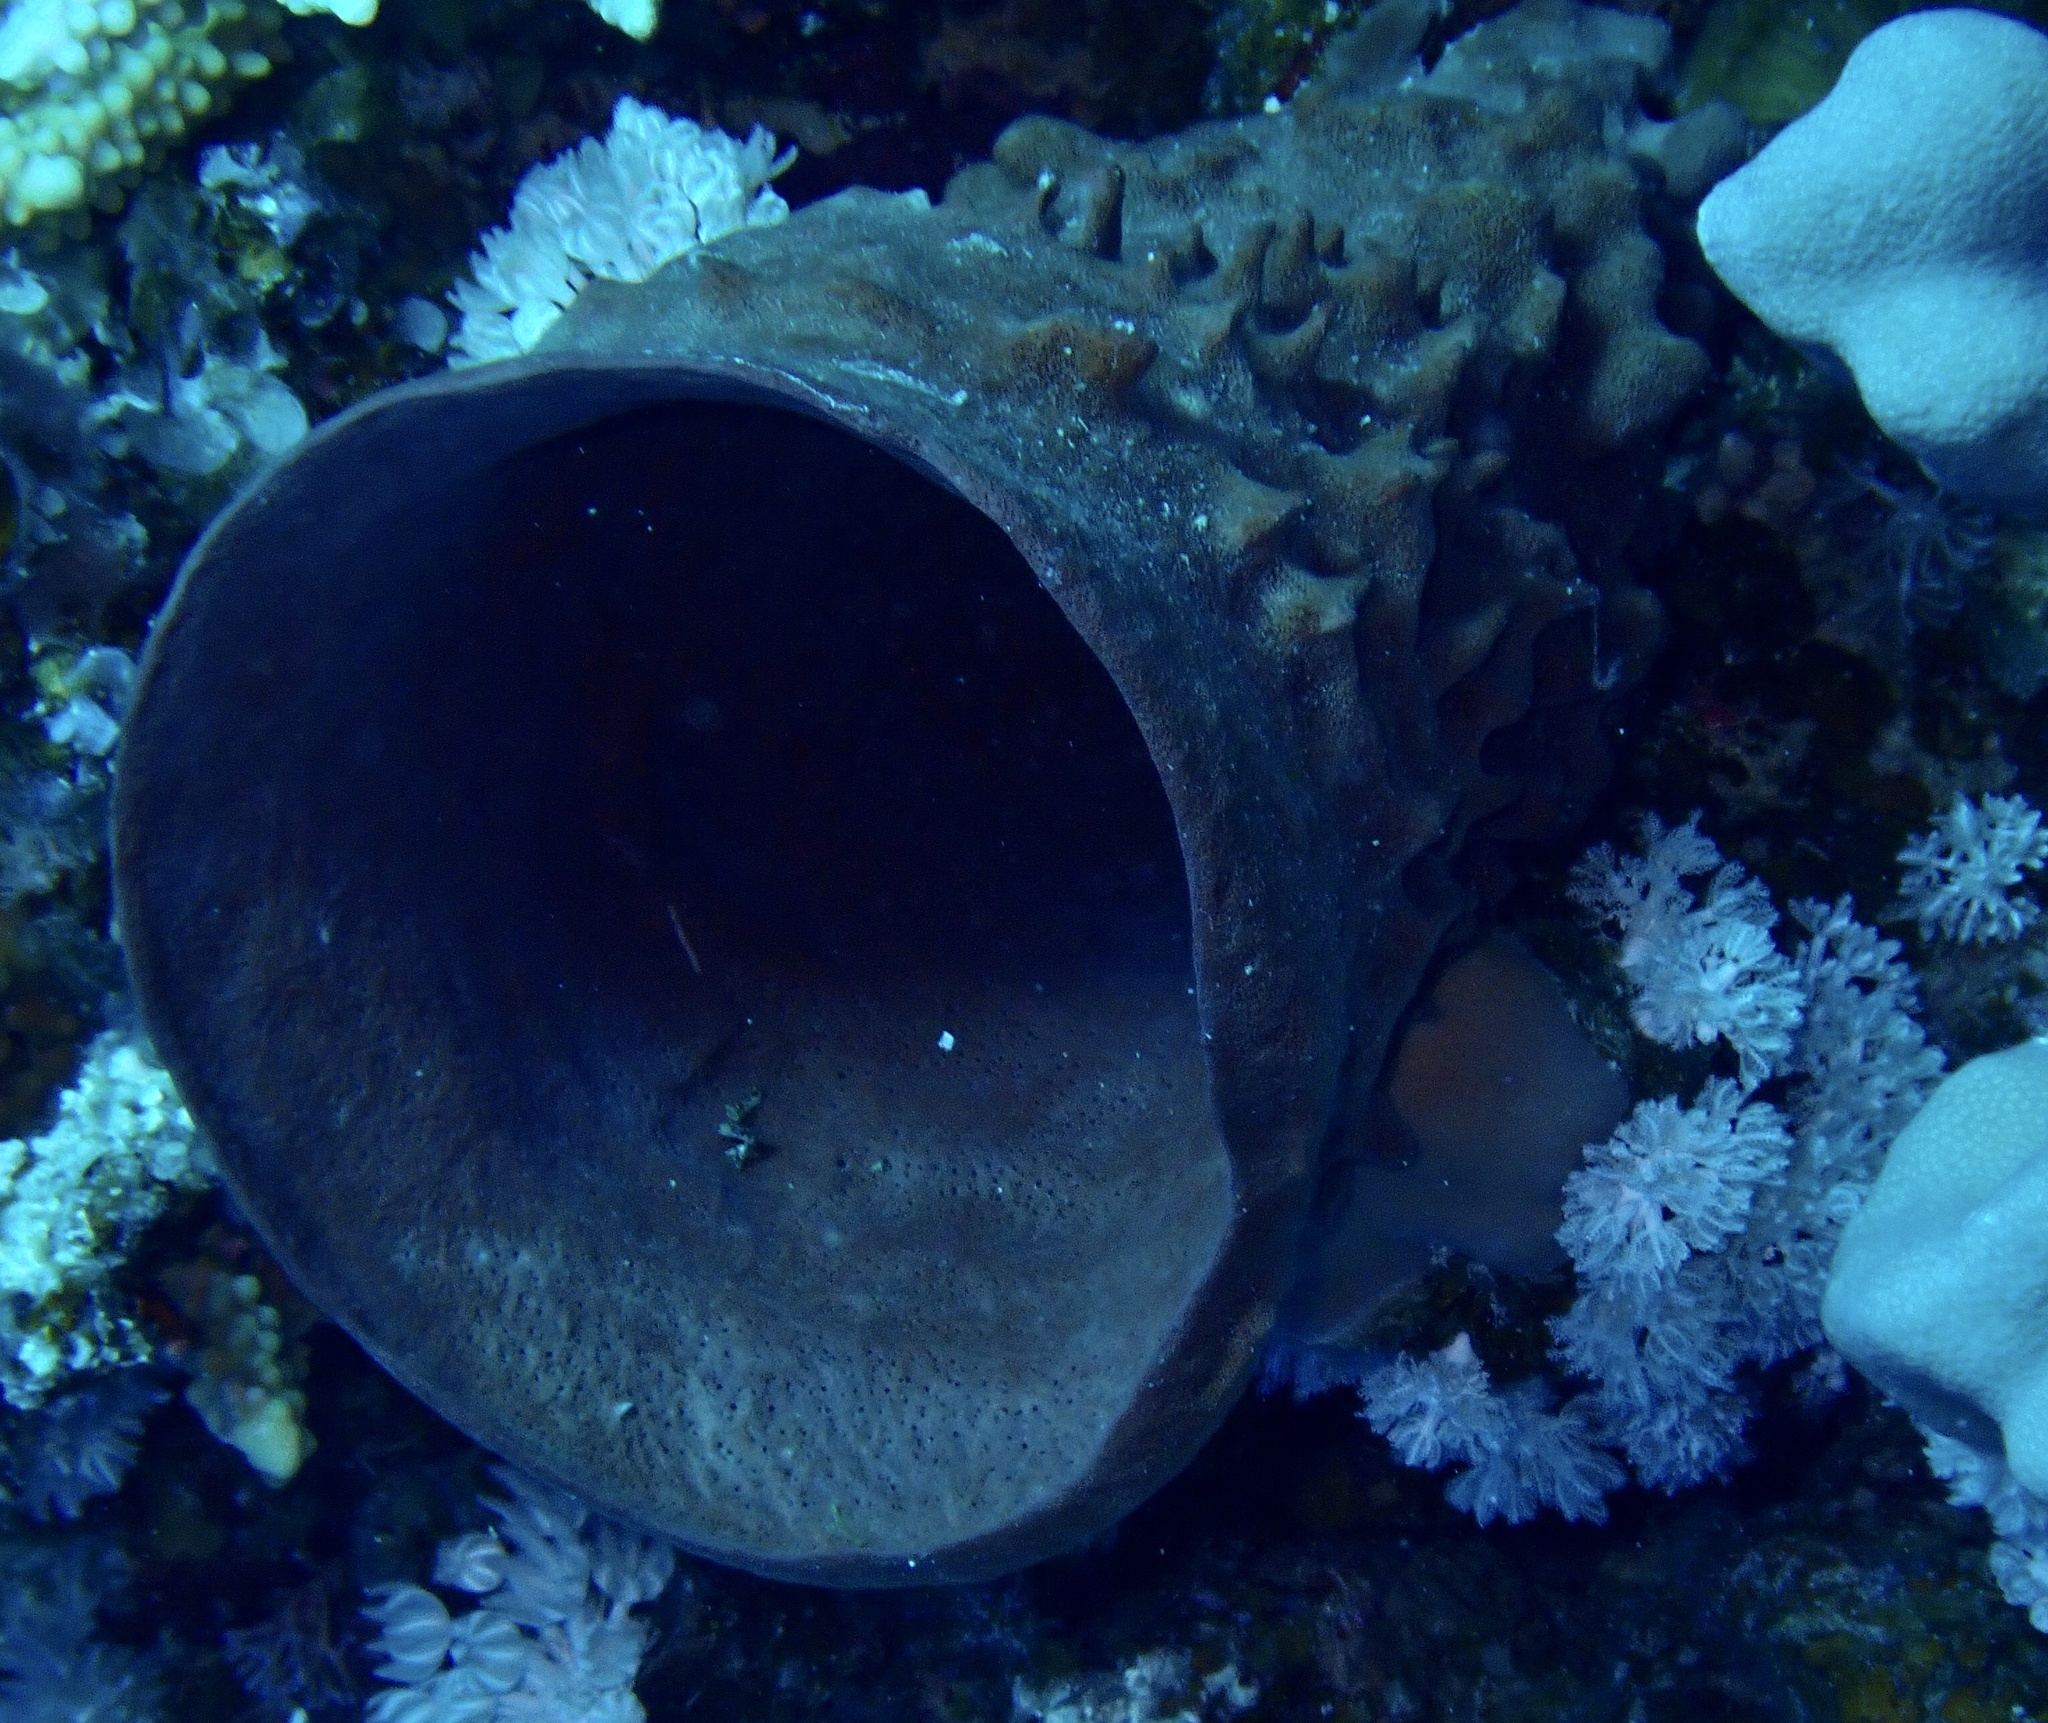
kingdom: Animalia
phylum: Porifera
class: Demospongiae
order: Haplosclerida
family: Callyspongiidae
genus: Callyspongia
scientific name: Callyspongia crassa
